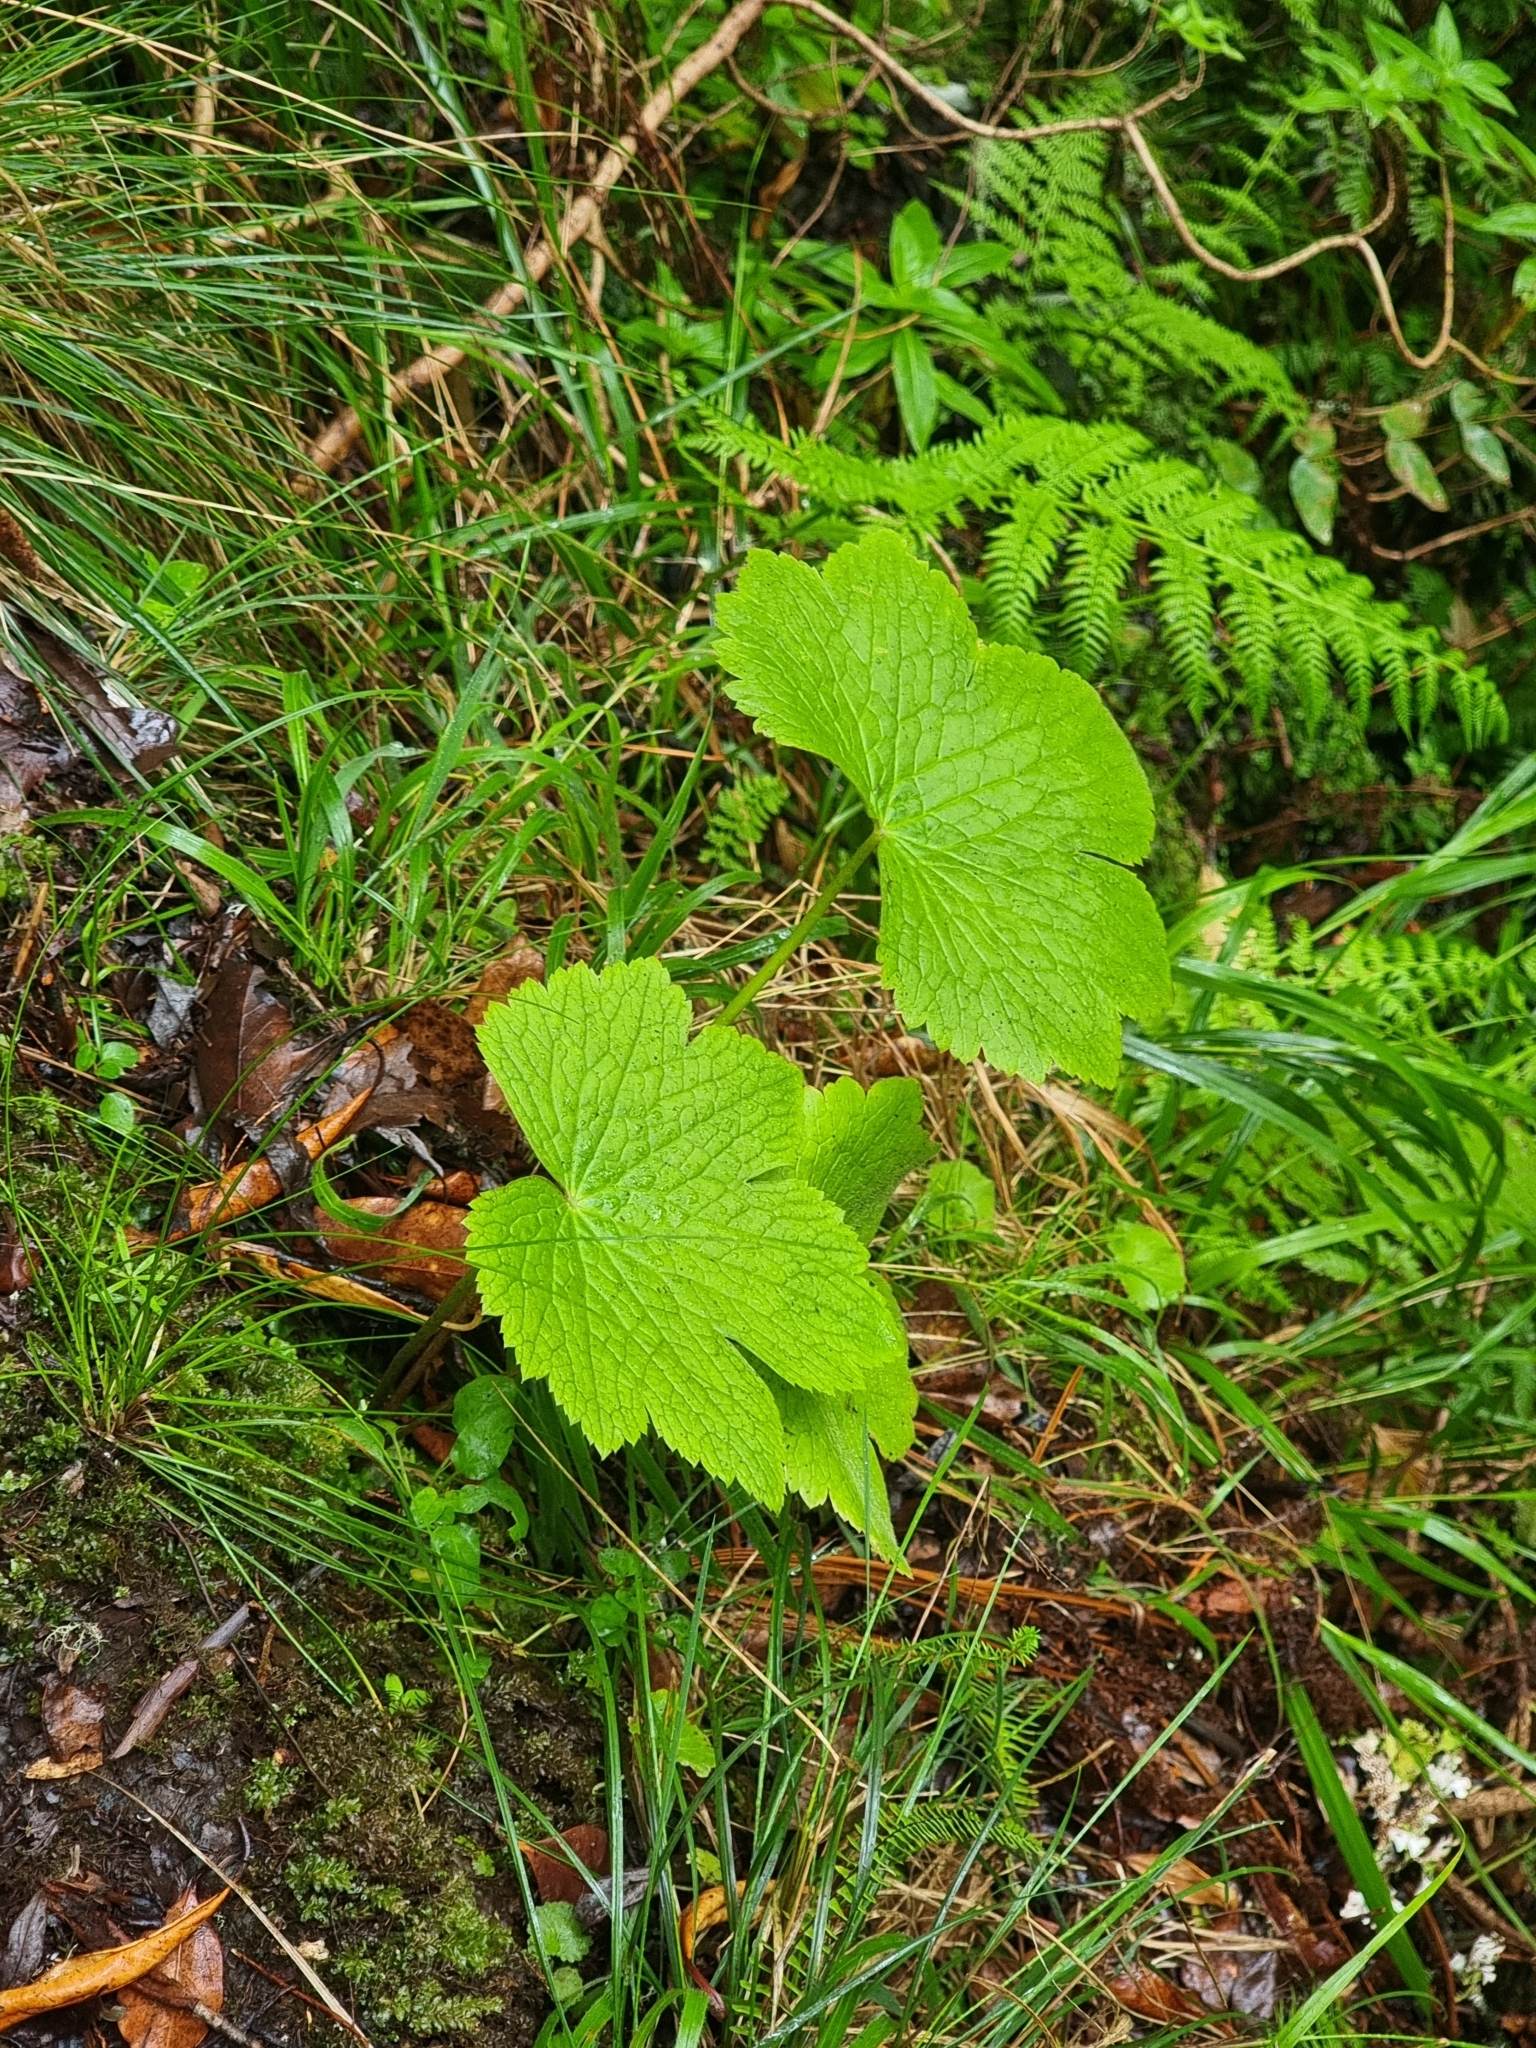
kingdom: Plantae
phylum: Tracheophyta
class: Magnoliopsida
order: Ranunculales
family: Ranunculaceae
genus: Ranunculus
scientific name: Ranunculus cortusifolius
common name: Azores buttercup
